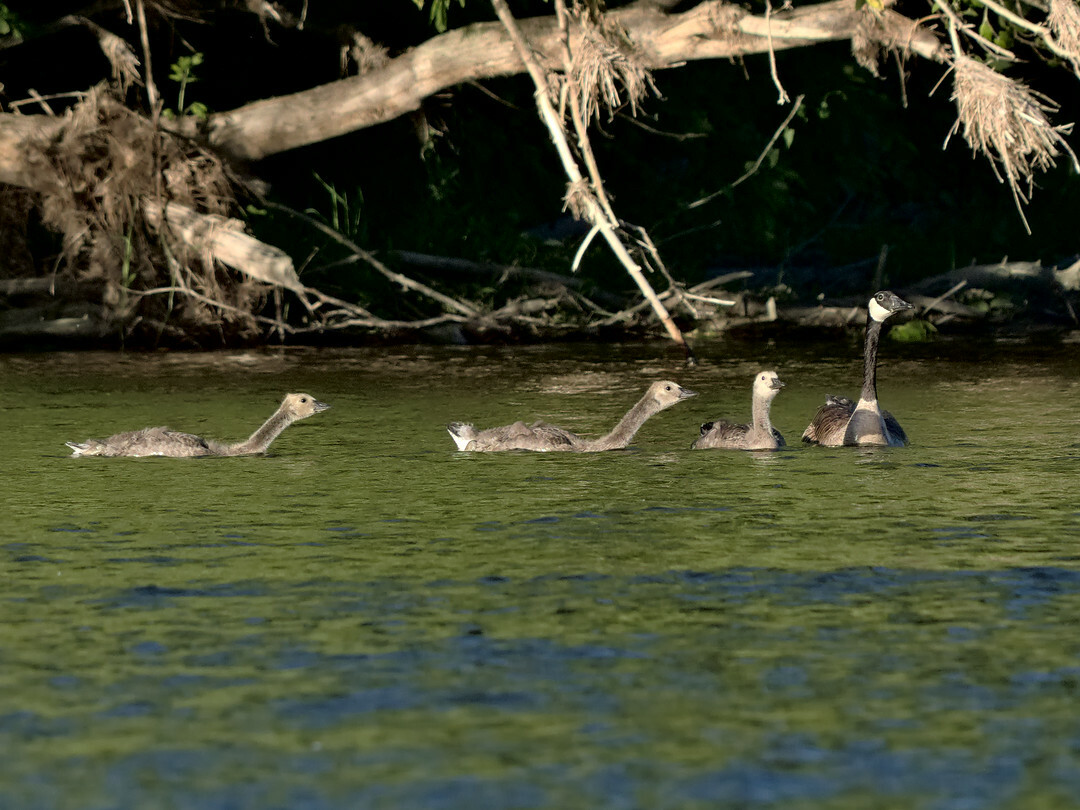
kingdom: Animalia
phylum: Chordata
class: Aves
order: Anseriformes
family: Anatidae
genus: Branta
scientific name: Branta canadensis
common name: Canada goose
